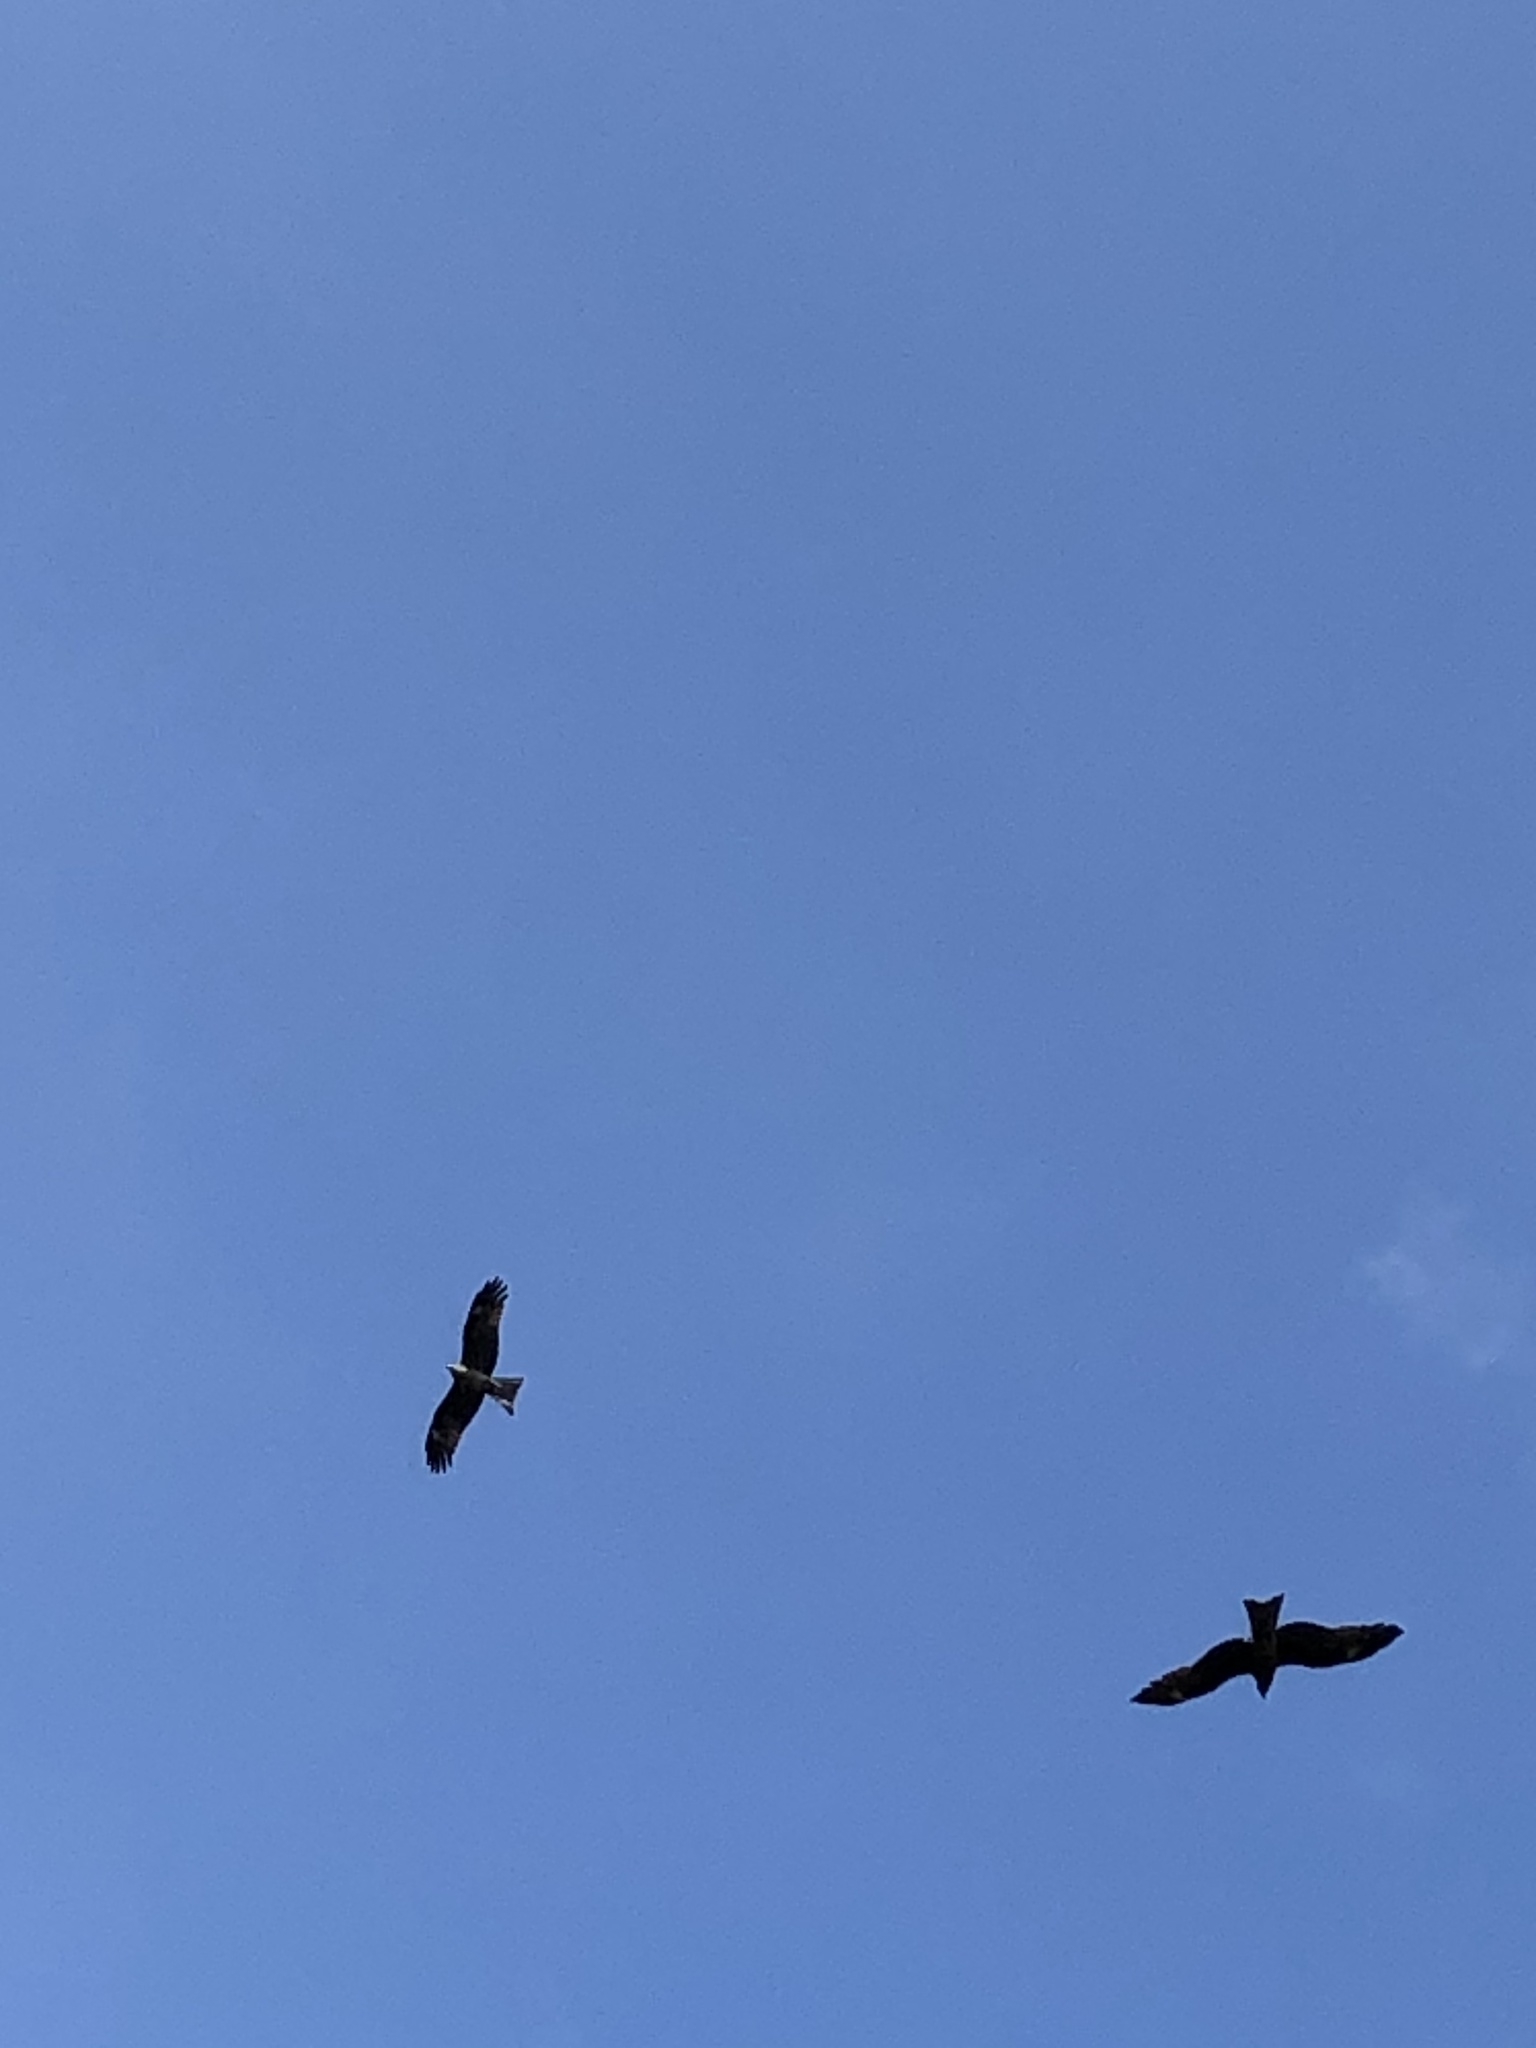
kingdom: Animalia
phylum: Chordata
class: Aves
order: Accipitriformes
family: Accipitridae
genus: Milvus
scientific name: Milvus migrans
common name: Black kite
